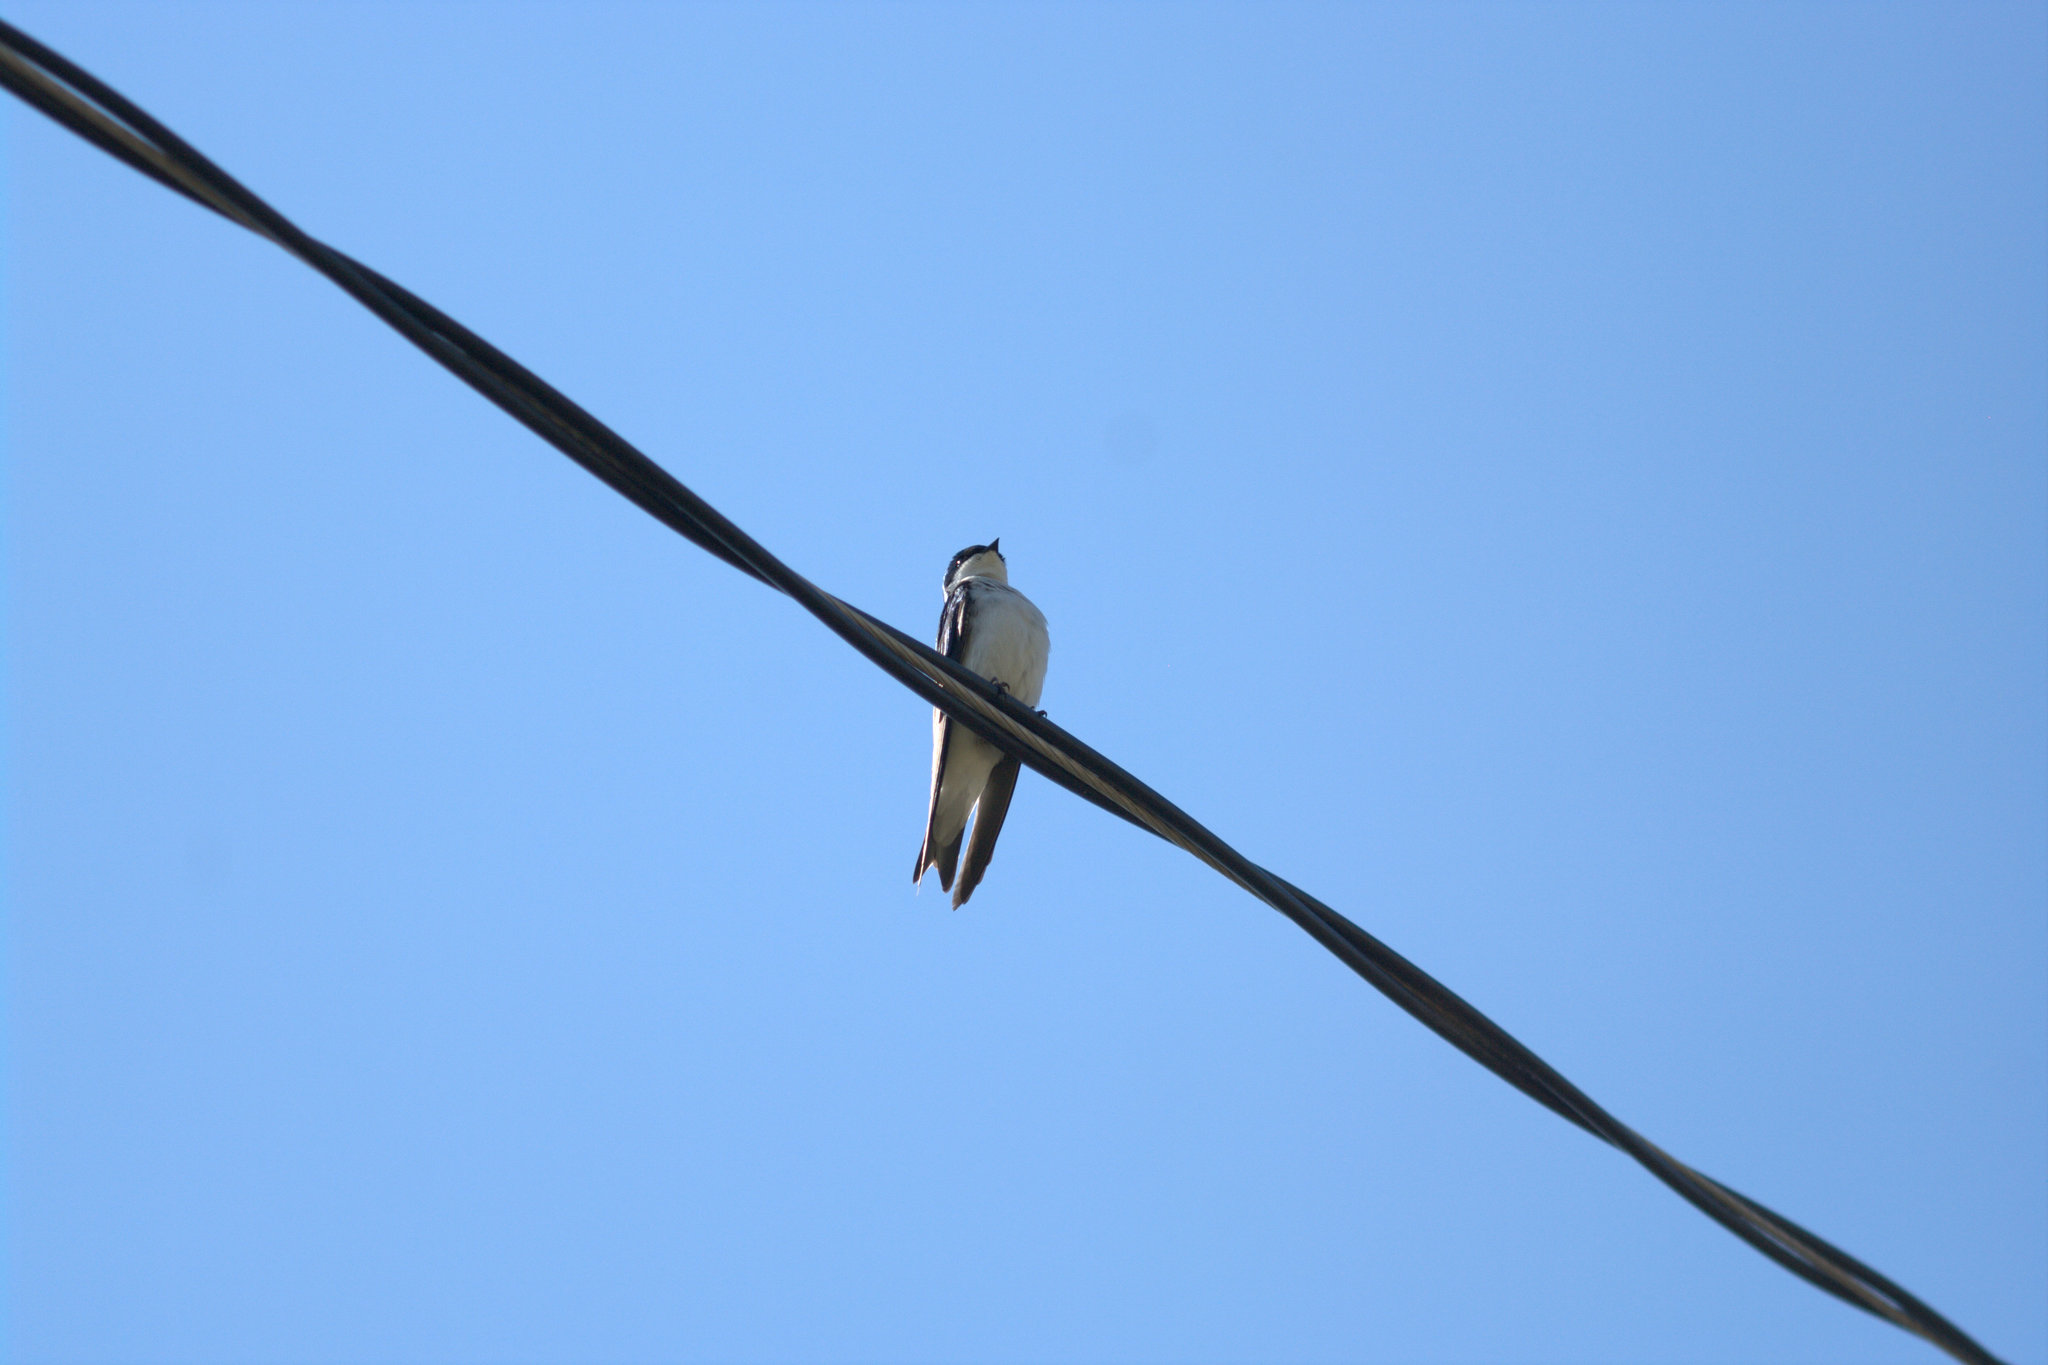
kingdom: Animalia
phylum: Chordata
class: Aves
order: Passeriformes
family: Hirundinidae
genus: Tachycineta
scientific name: Tachycineta bicolor
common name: Tree swallow
